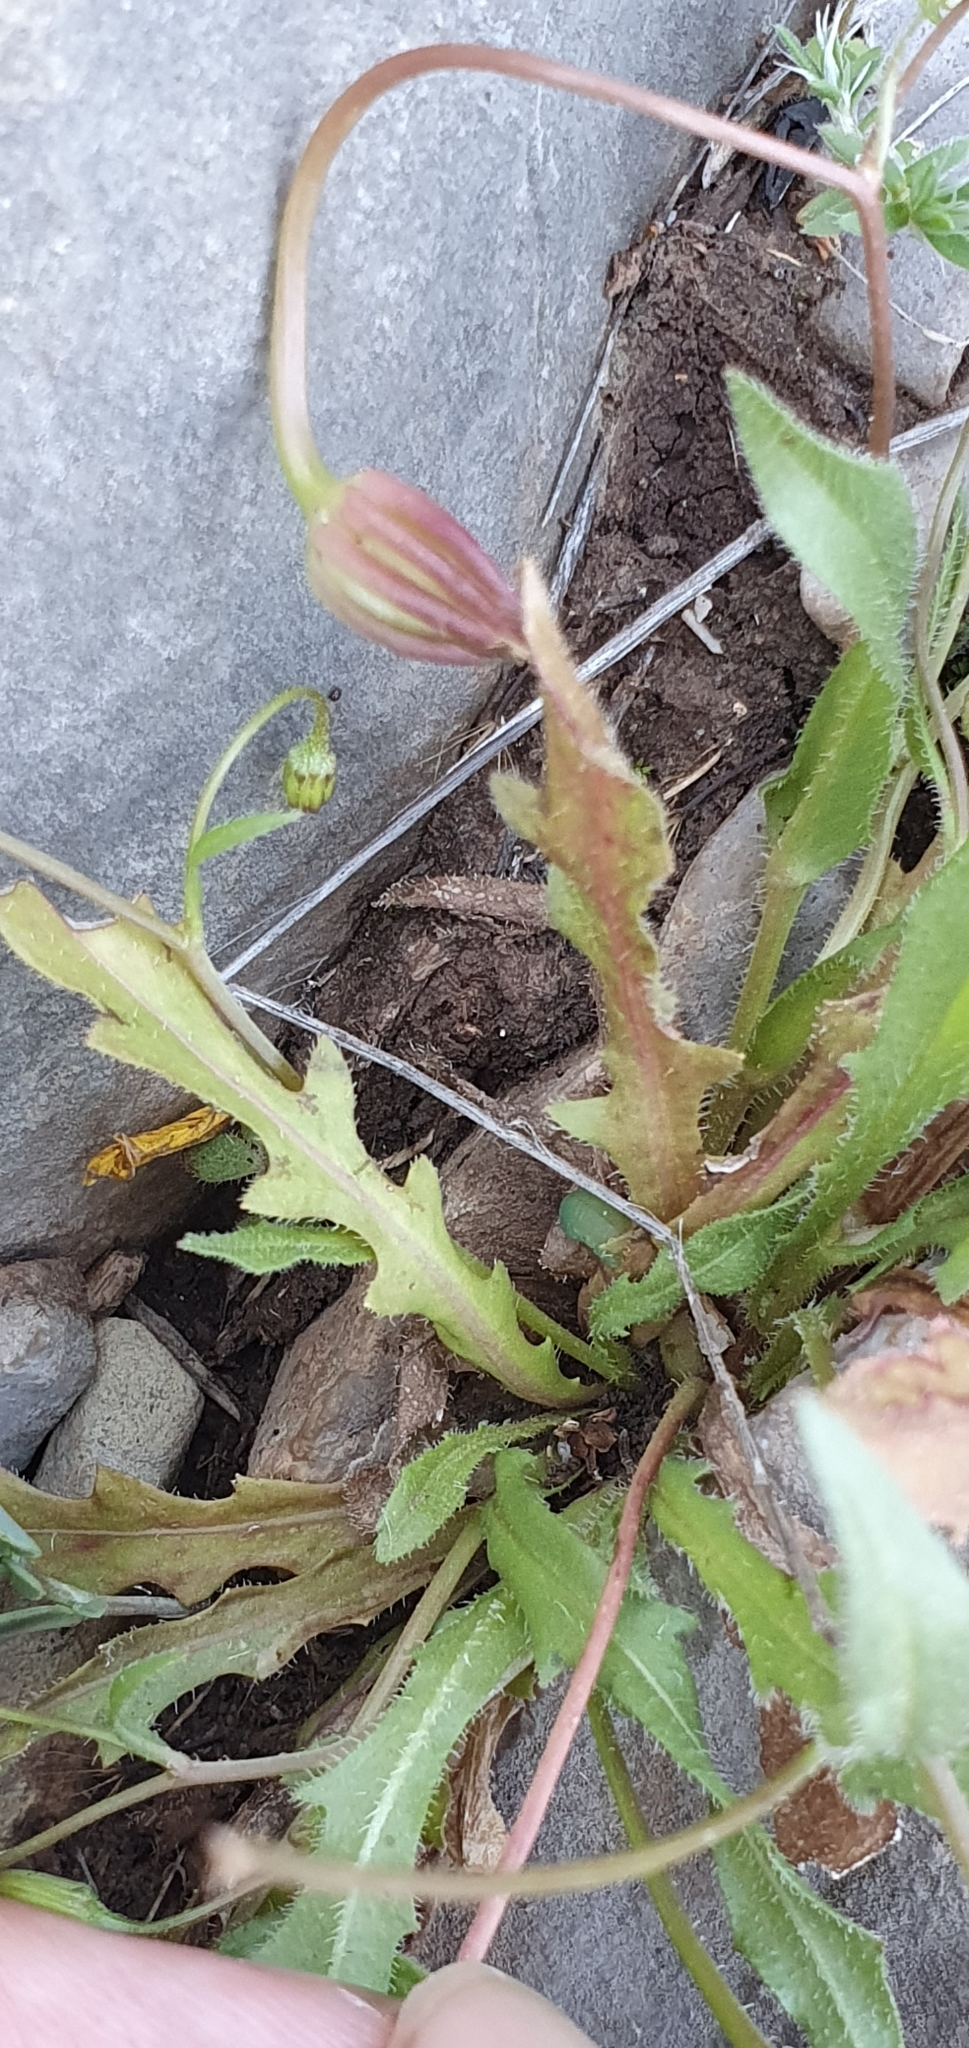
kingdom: Plantae
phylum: Tracheophyta
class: Magnoliopsida
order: Asterales
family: Asteraceae
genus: Hedypnois
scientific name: Hedypnois rhagadioloides
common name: Cretan weed
